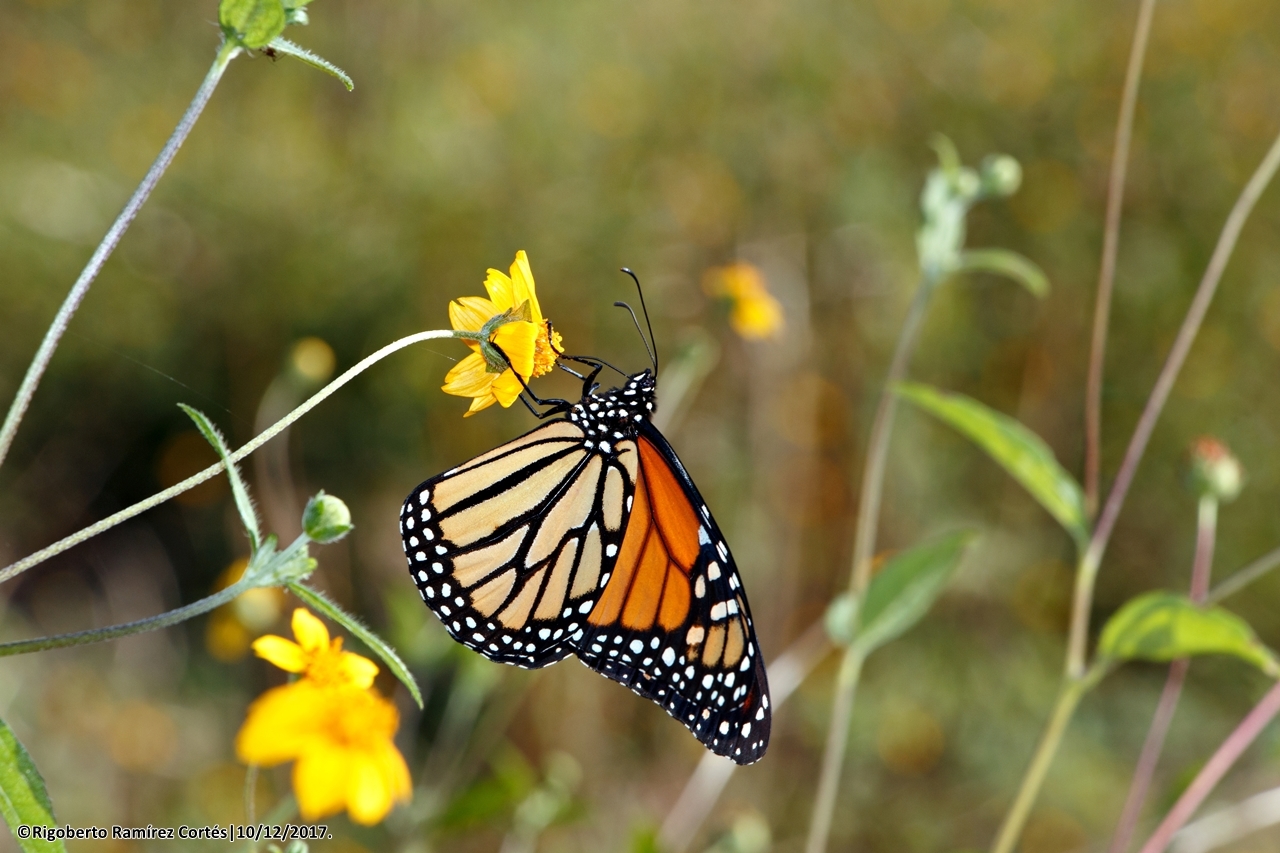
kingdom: Animalia
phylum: Arthropoda
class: Insecta
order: Lepidoptera
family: Nymphalidae
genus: Danaus
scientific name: Danaus plexippus
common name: Monarch
